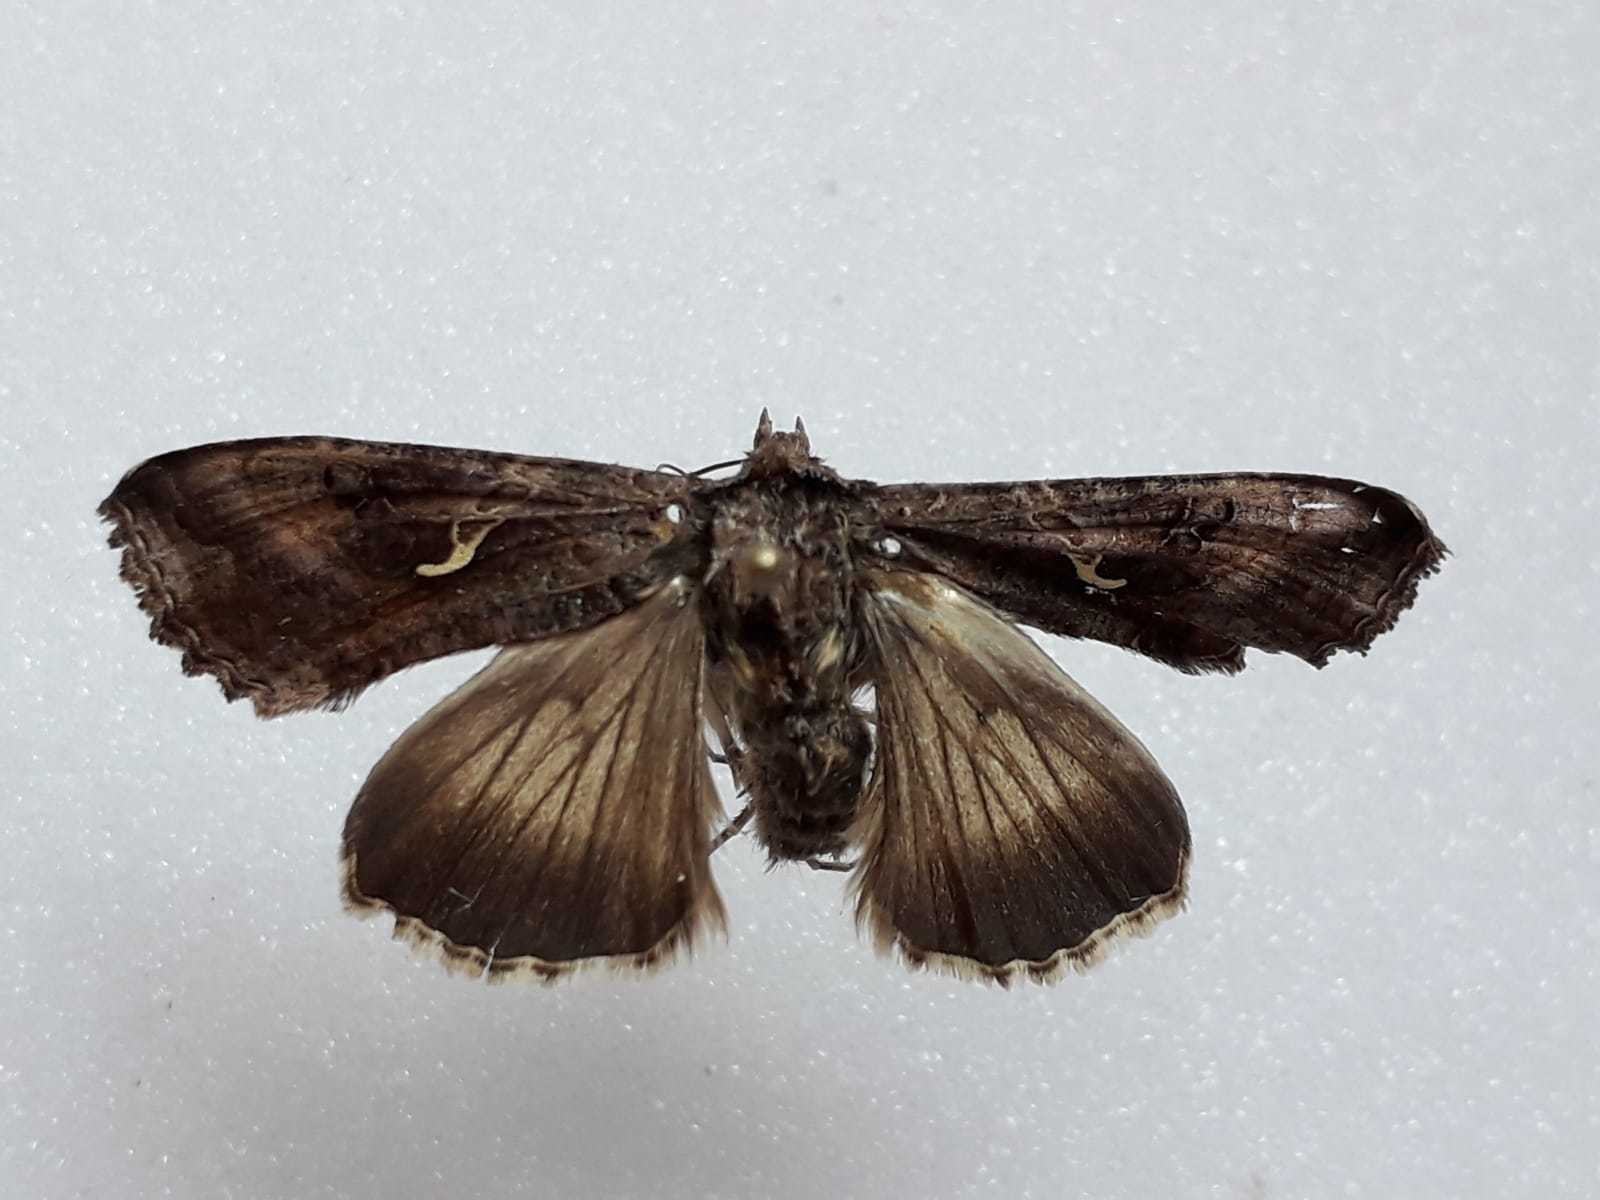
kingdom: Animalia
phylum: Arthropoda
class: Insecta
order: Lepidoptera
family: Noctuidae
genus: Autographa
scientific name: Autographa gamma
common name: Silver y
